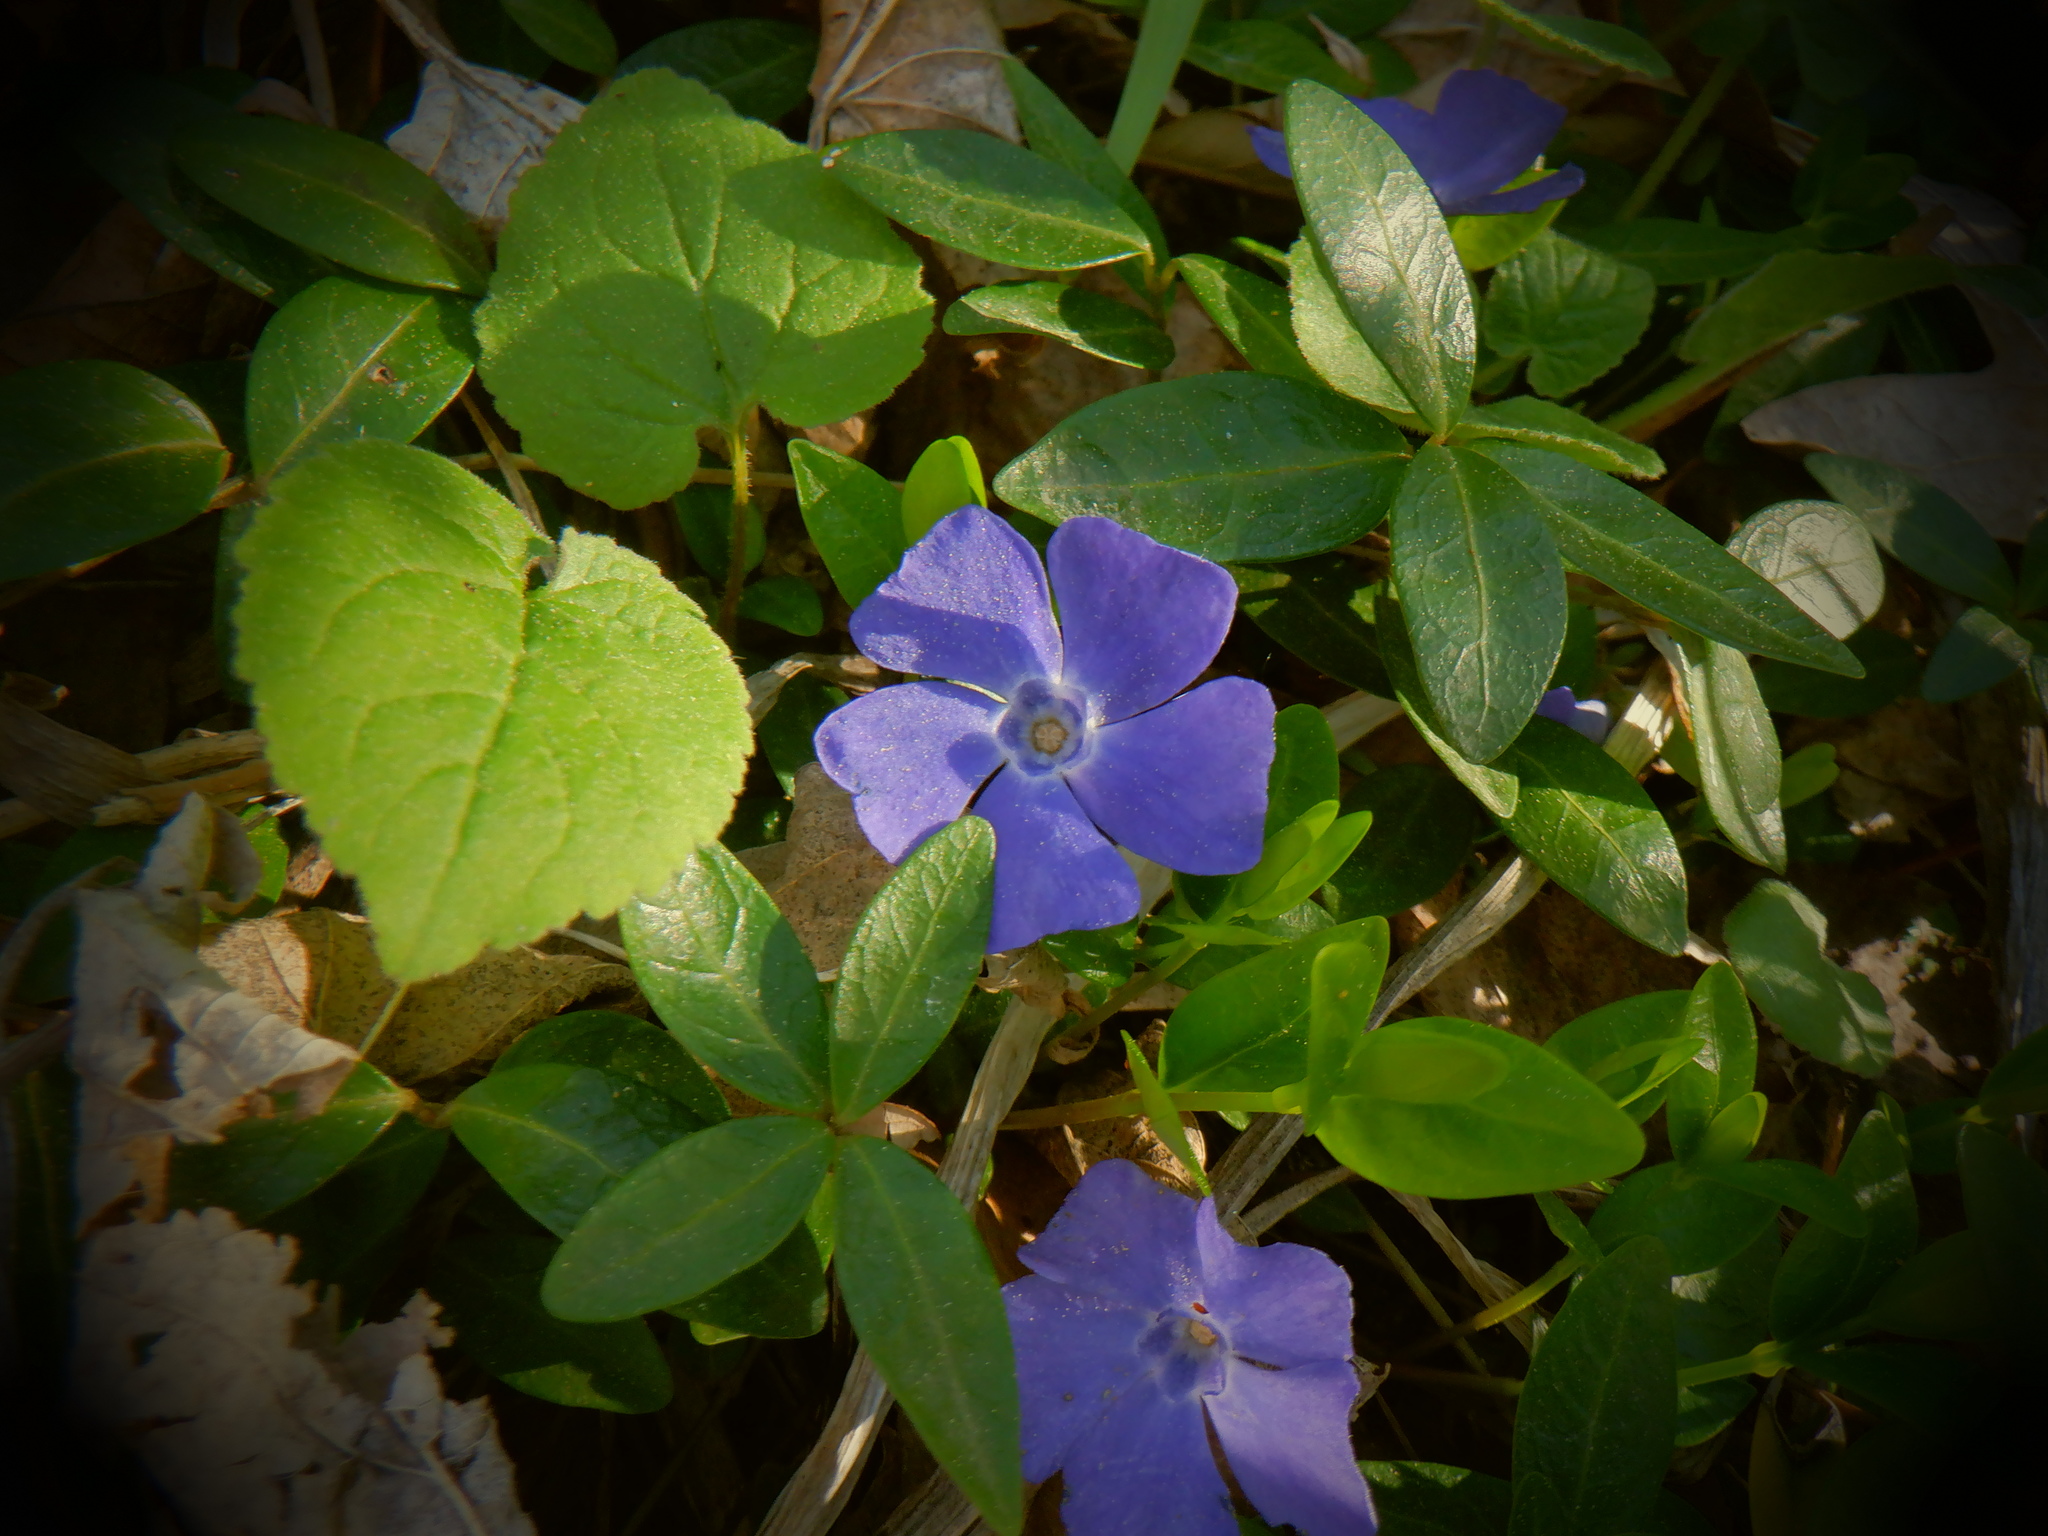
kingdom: Plantae
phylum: Tracheophyta
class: Magnoliopsida
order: Gentianales
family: Apocynaceae
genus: Vinca
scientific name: Vinca minor
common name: Lesser periwinkle
